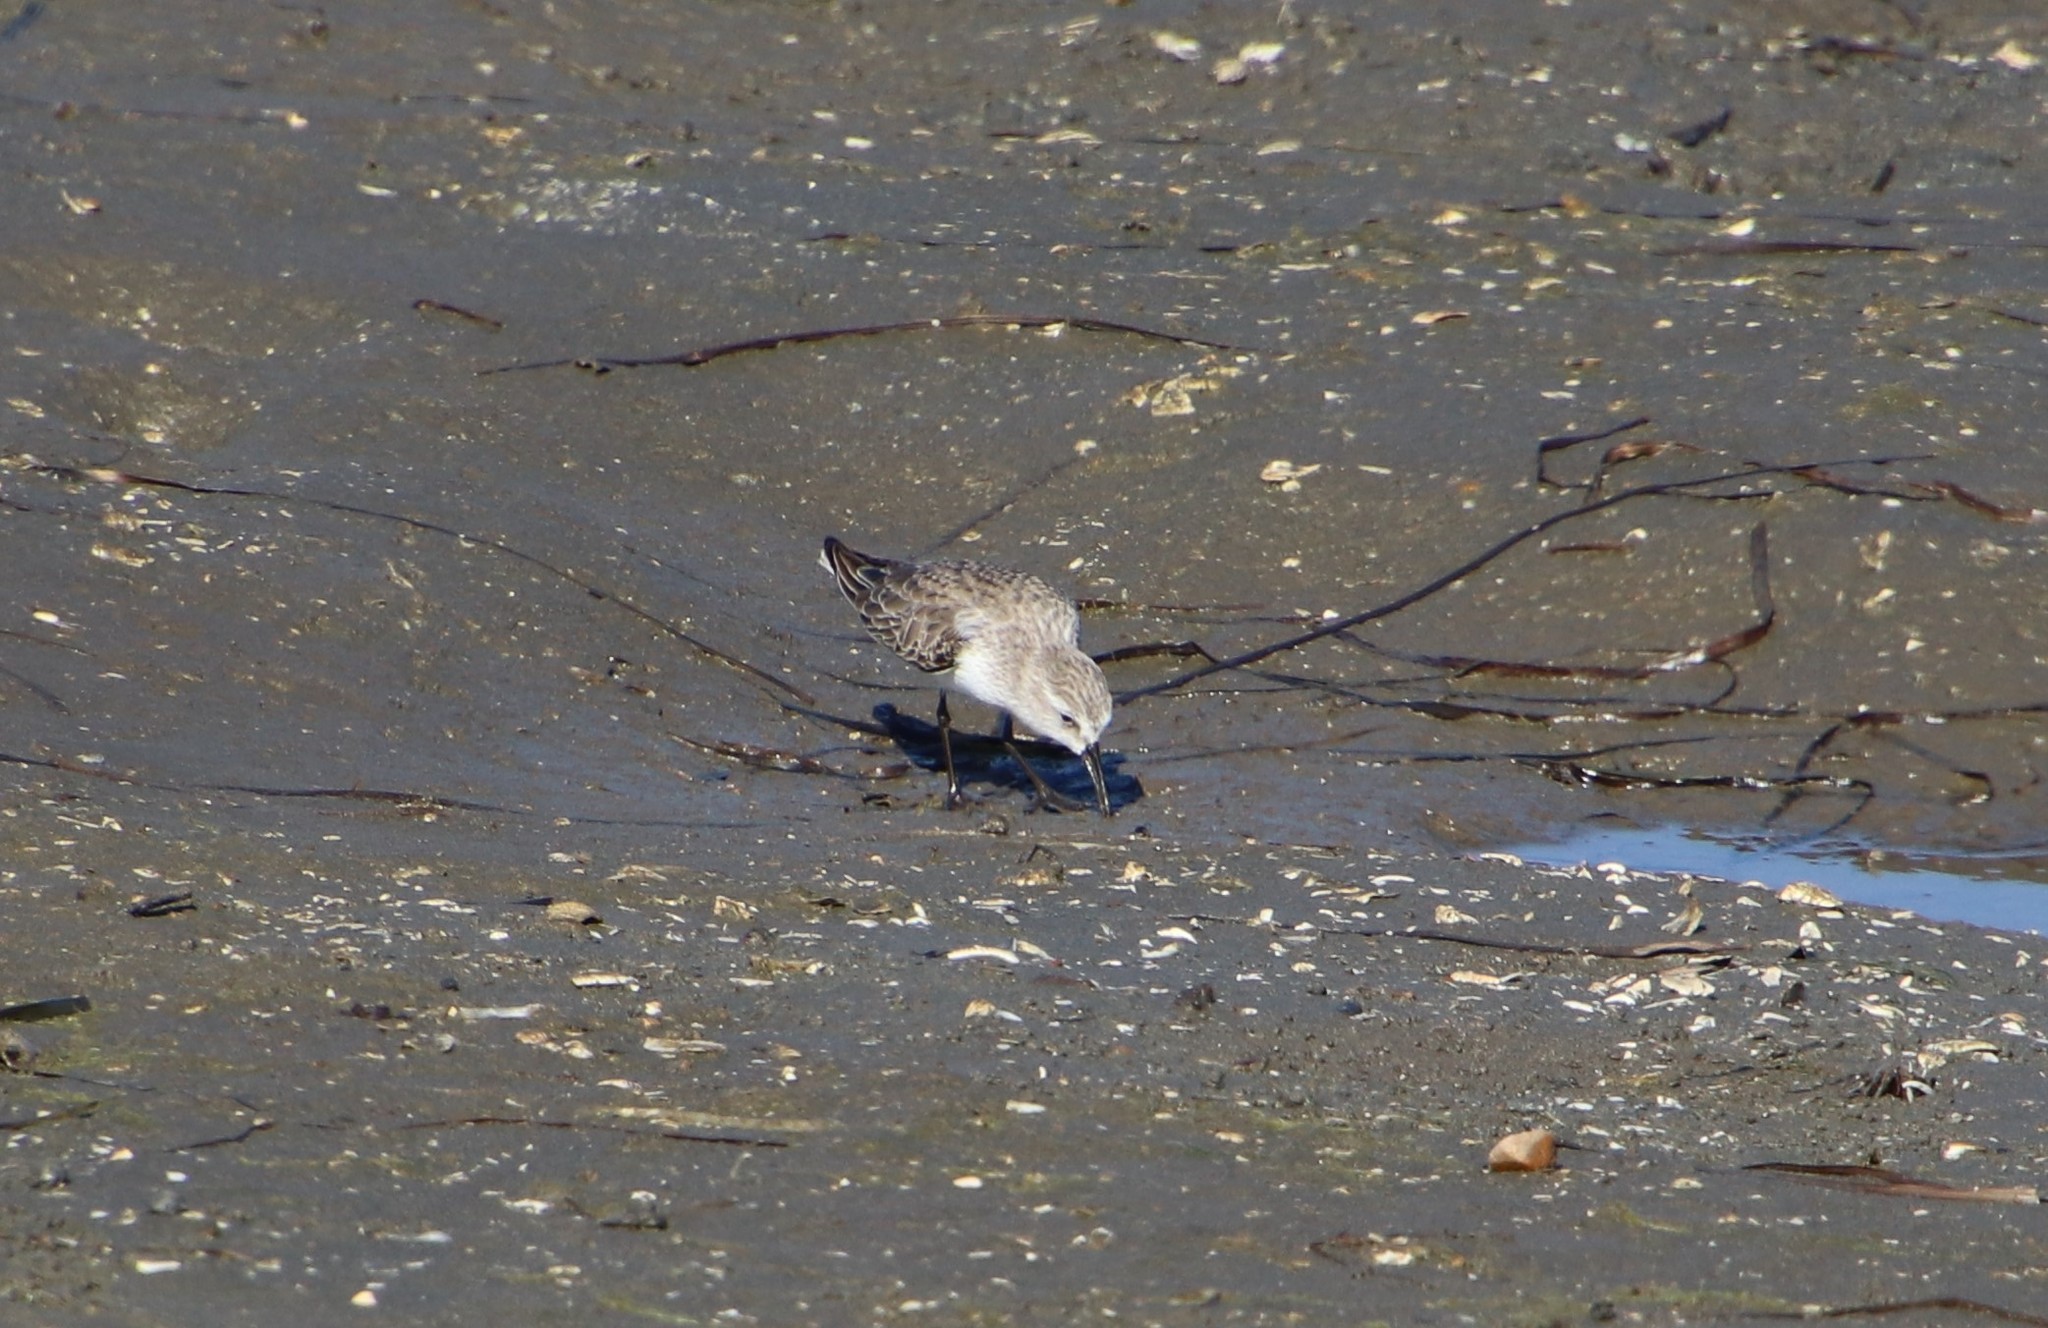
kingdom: Animalia
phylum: Chordata
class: Aves
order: Charadriiformes
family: Scolopacidae
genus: Calidris
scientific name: Calidris mauri
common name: Western sandpiper
